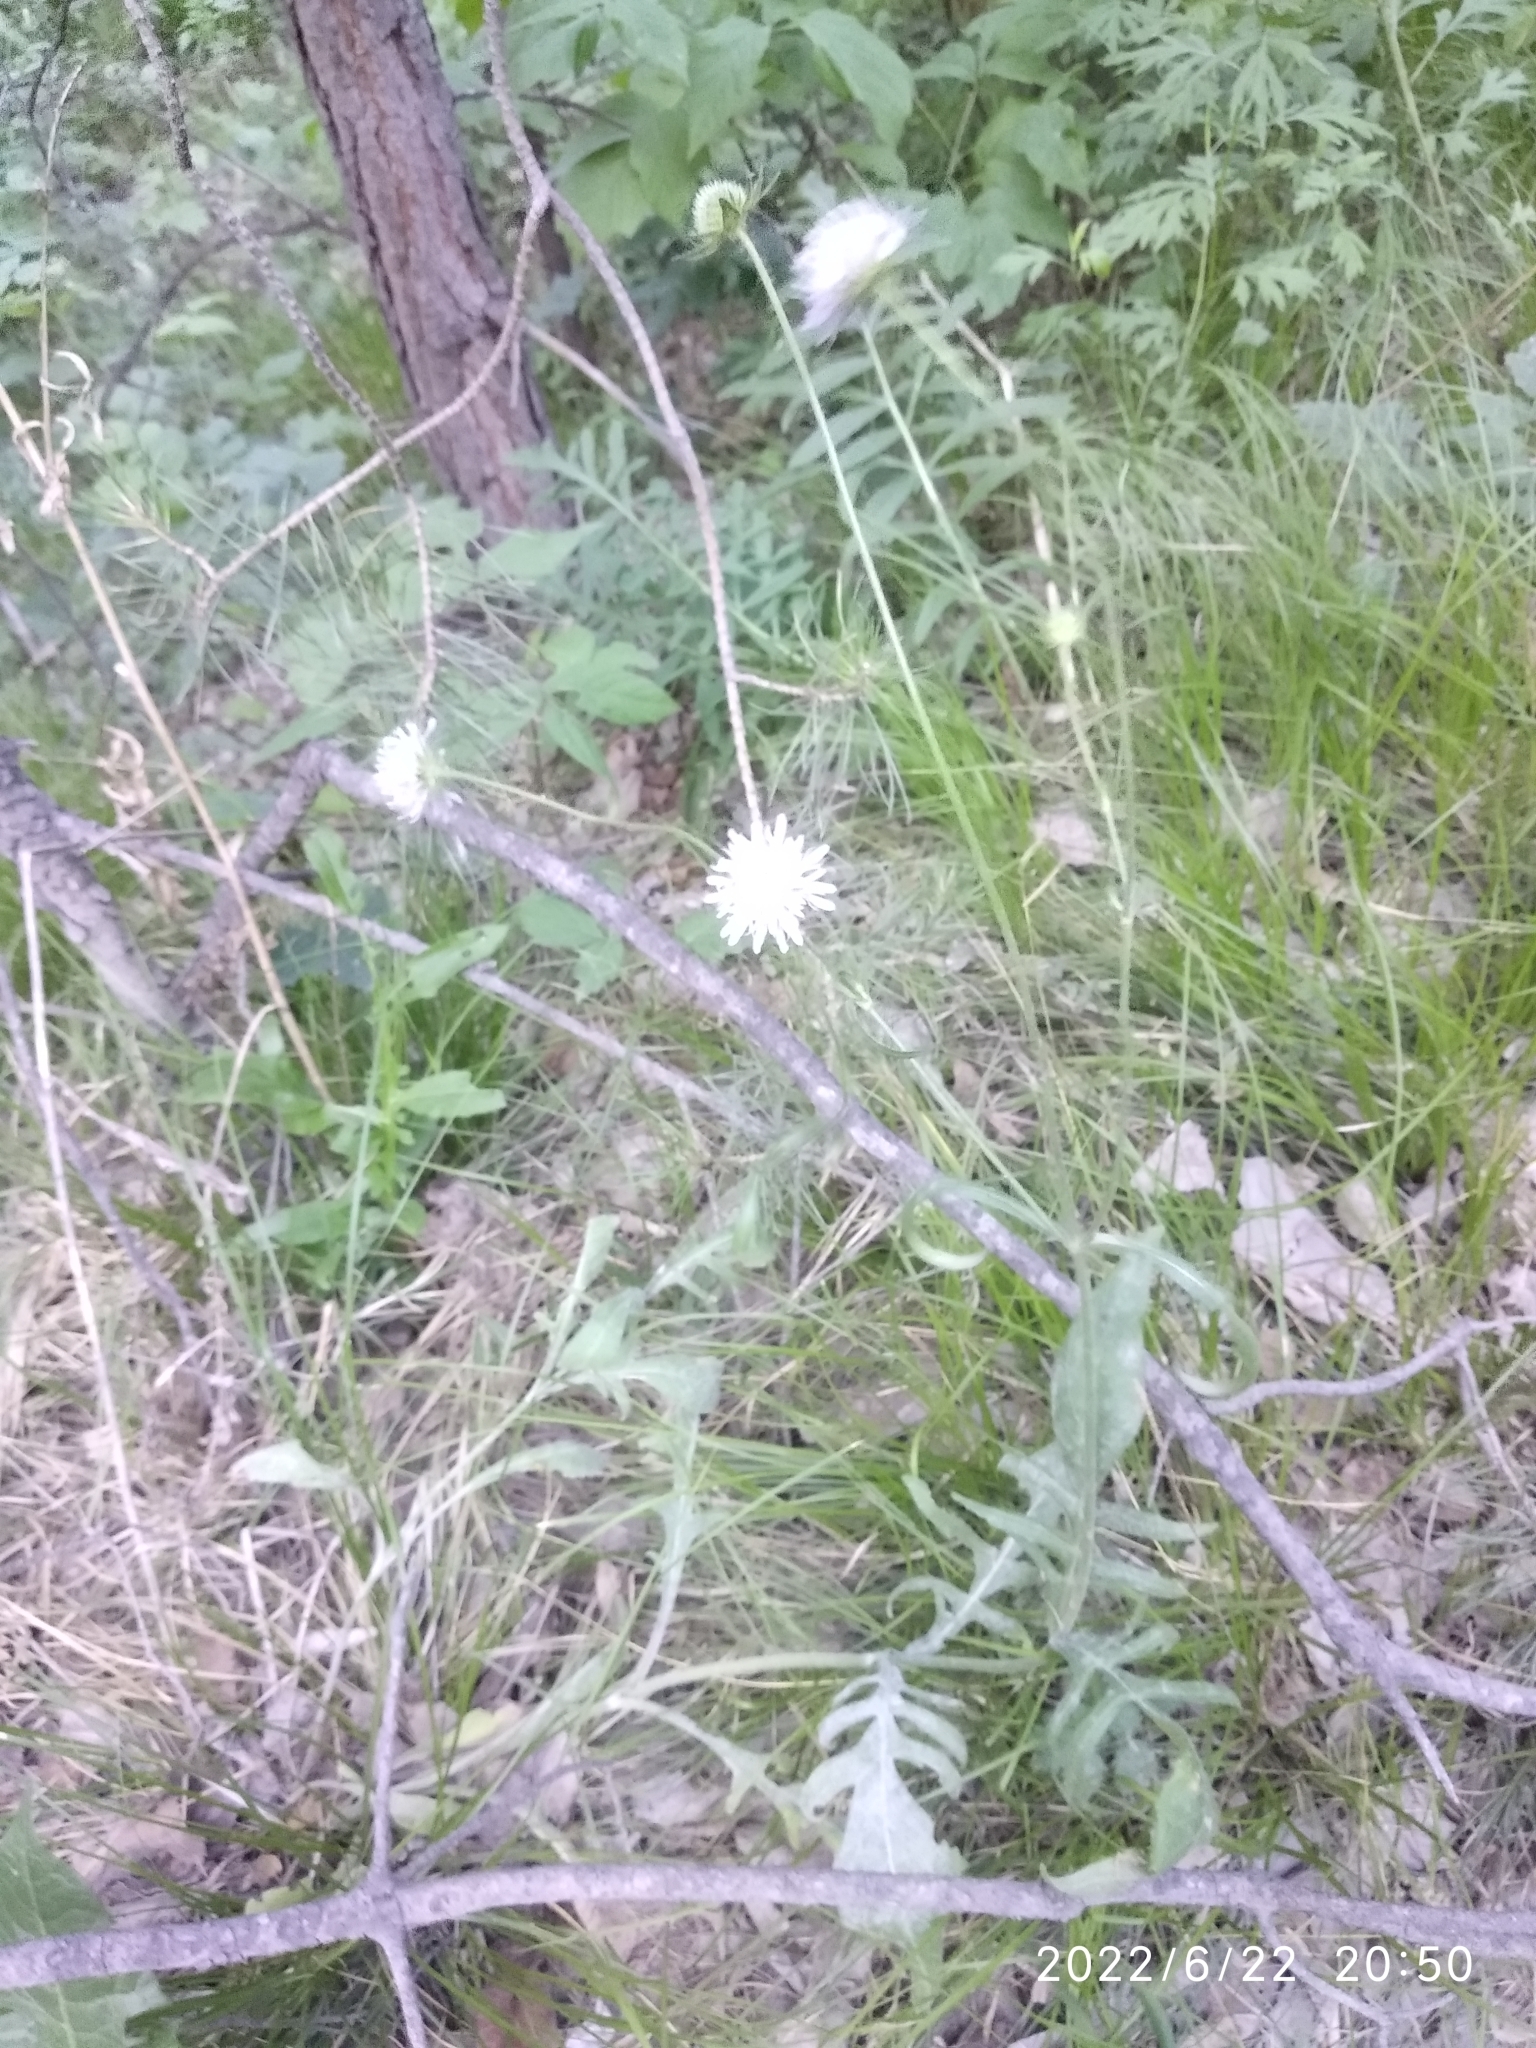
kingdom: Plantae
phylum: Tracheophyta
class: Magnoliopsida
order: Dipsacales
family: Caprifoliaceae
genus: Knautia
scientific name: Knautia arvensis
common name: Field scabiosa
